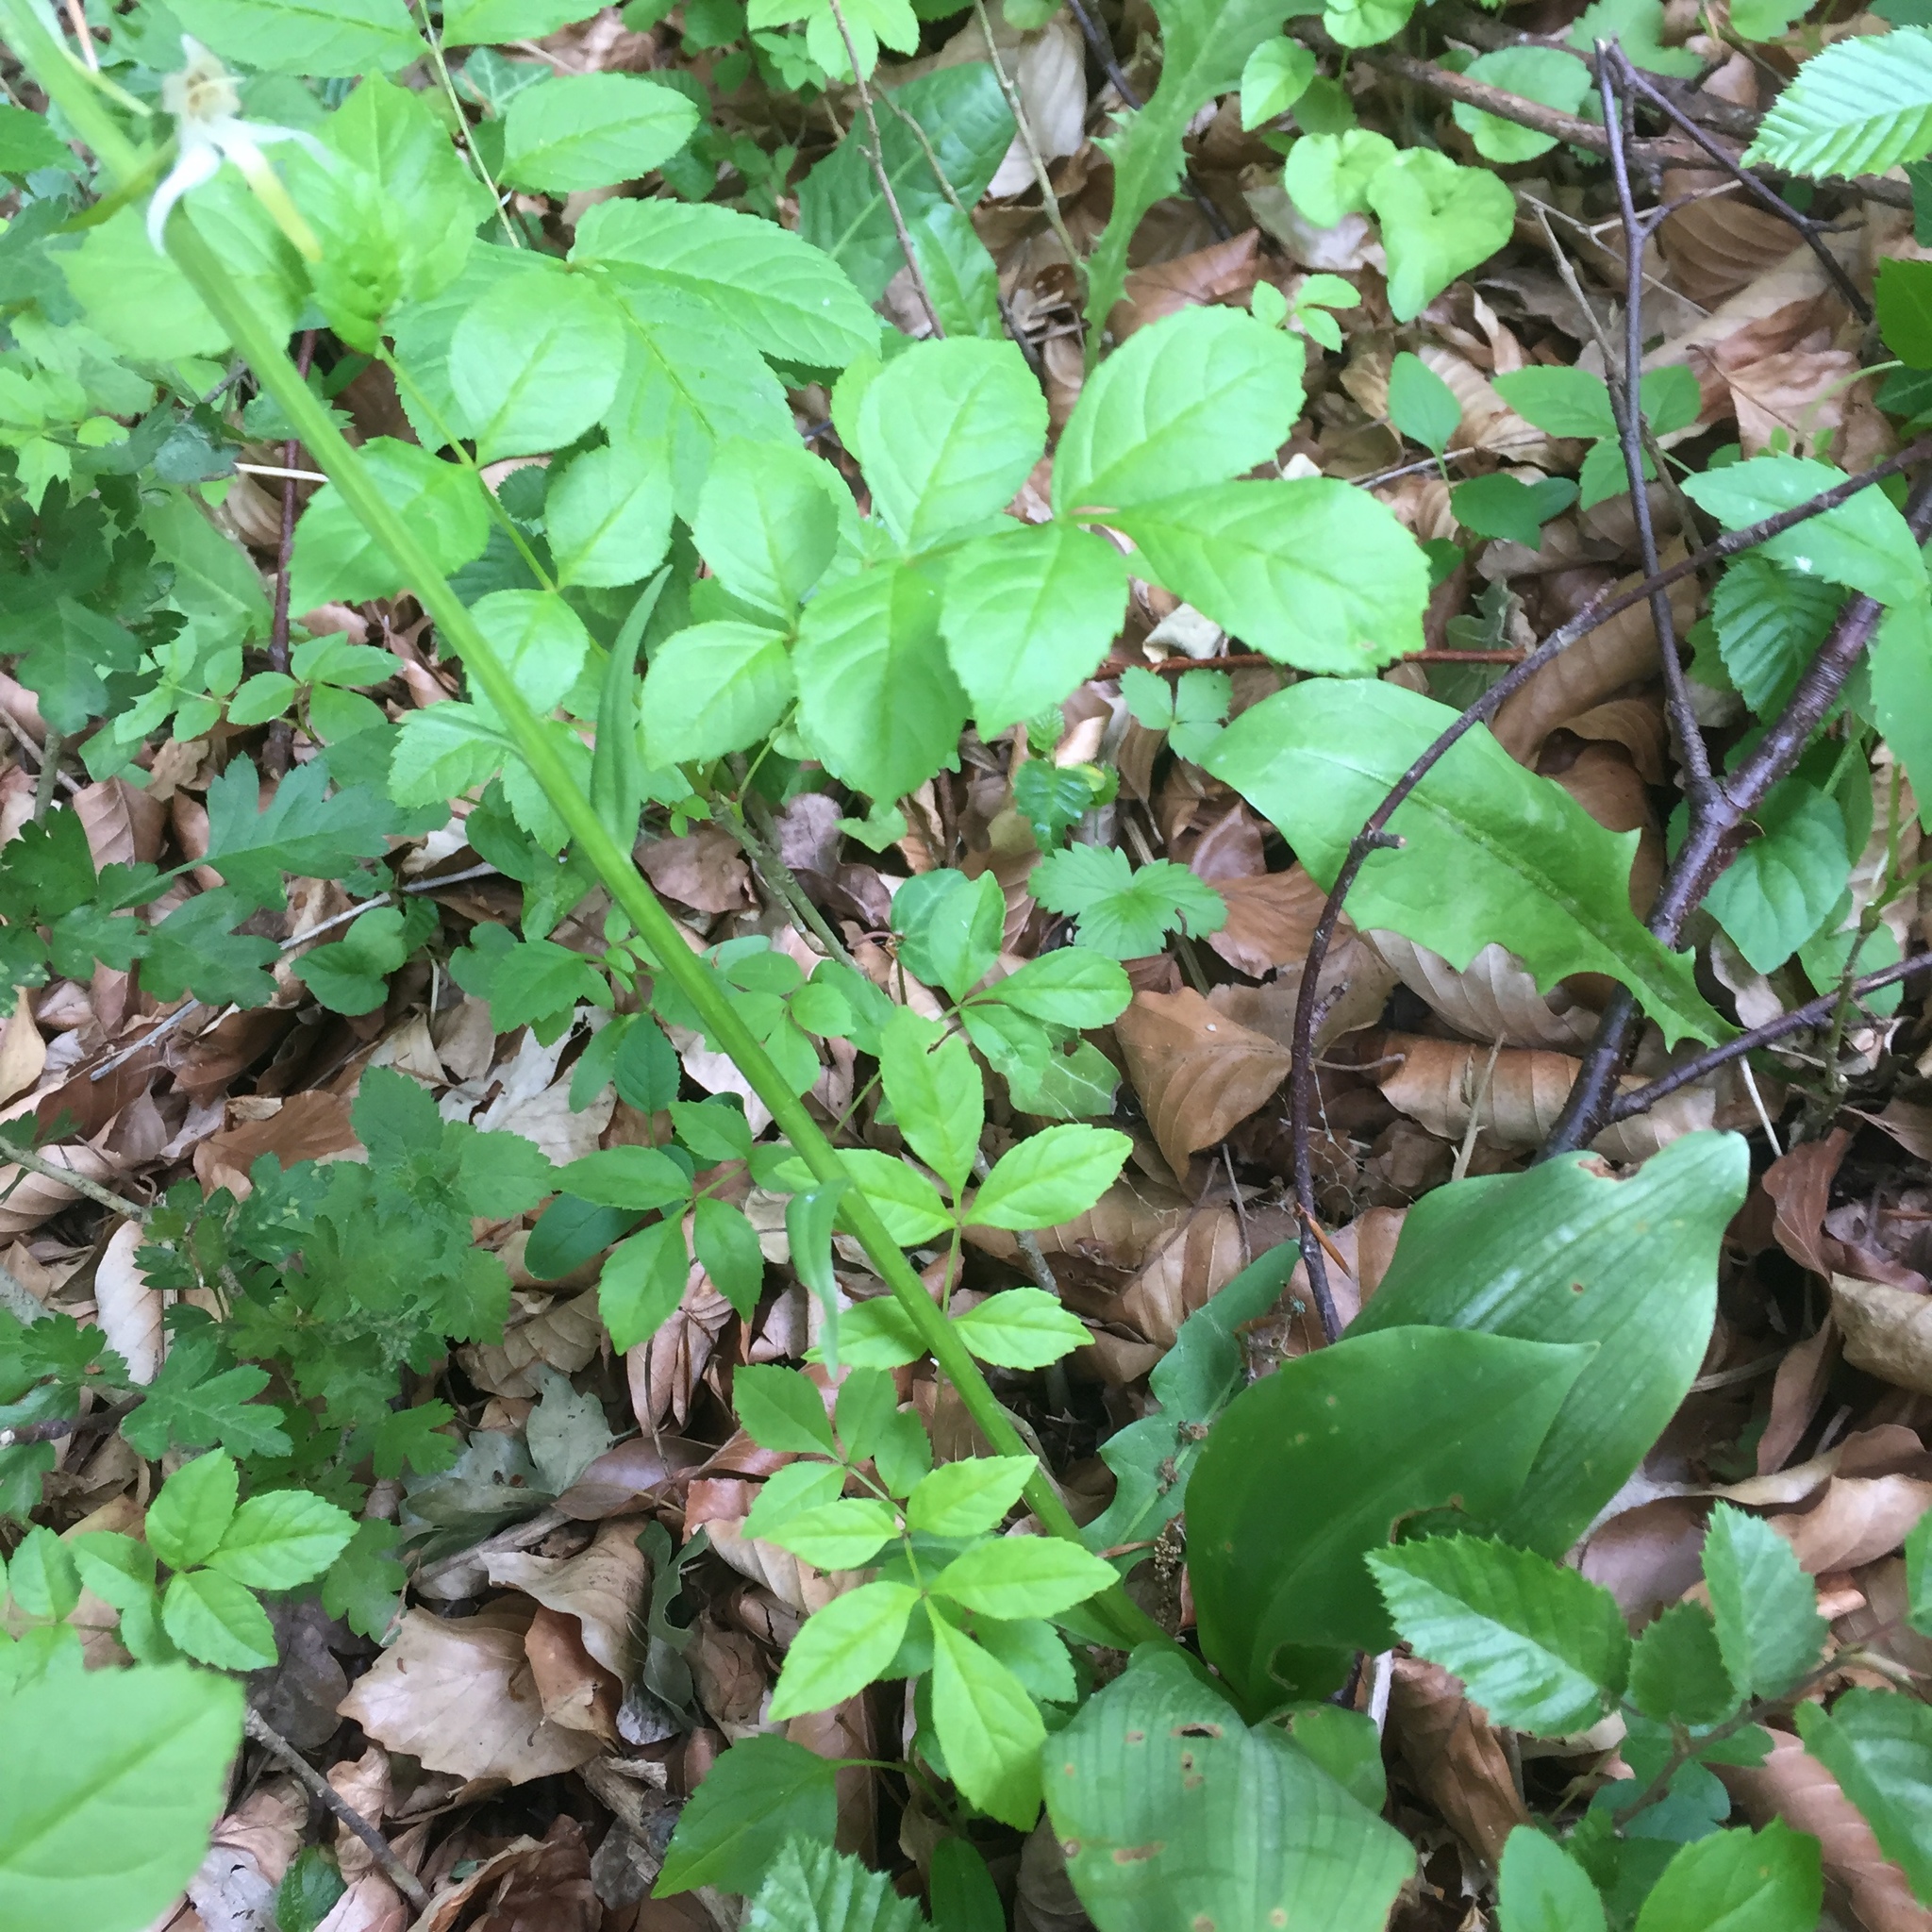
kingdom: Plantae
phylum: Tracheophyta
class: Liliopsida
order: Asparagales
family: Orchidaceae
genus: Platanthera
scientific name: Platanthera chlorantha
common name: Greater butterfly-orchid
